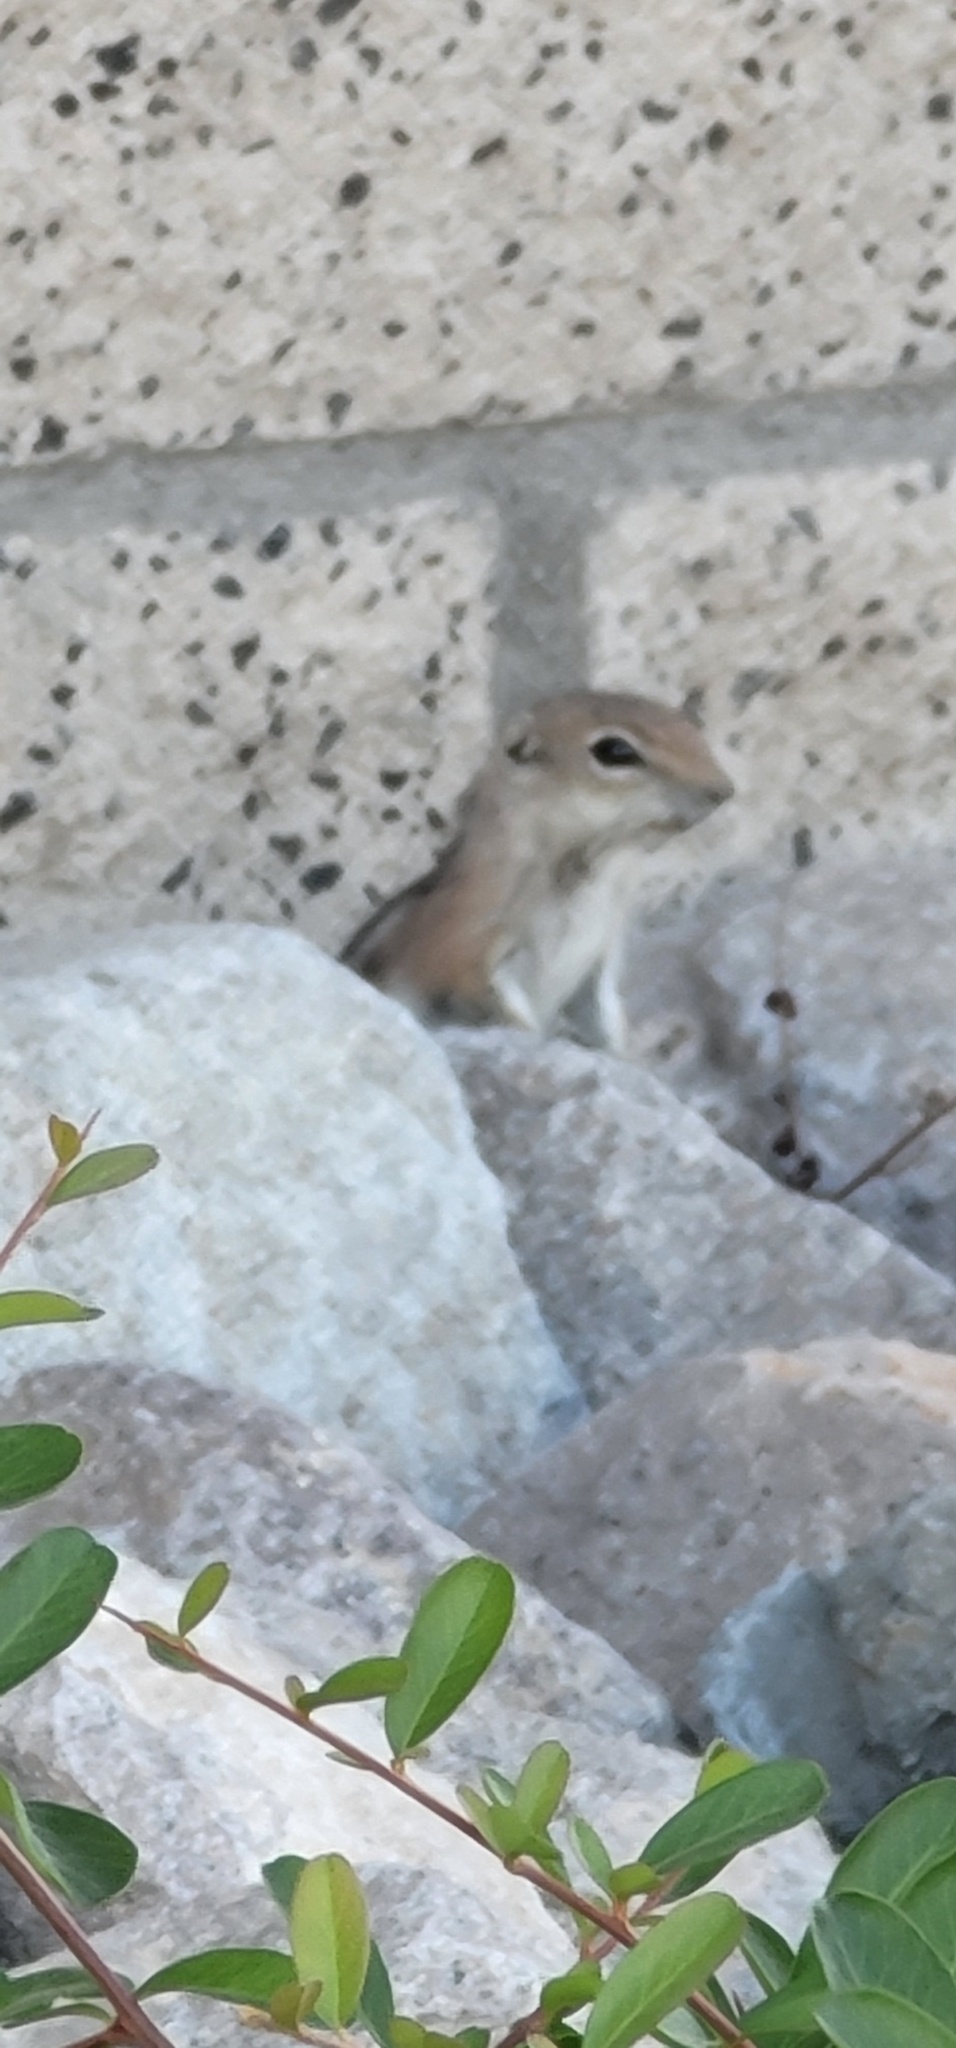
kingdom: Animalia
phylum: Chordata
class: Mammalia
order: Rodentia
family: Sciuridae
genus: Ammospermophilus
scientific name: Ammospermophilus leucurus
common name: White-tailed antelope squirrel
